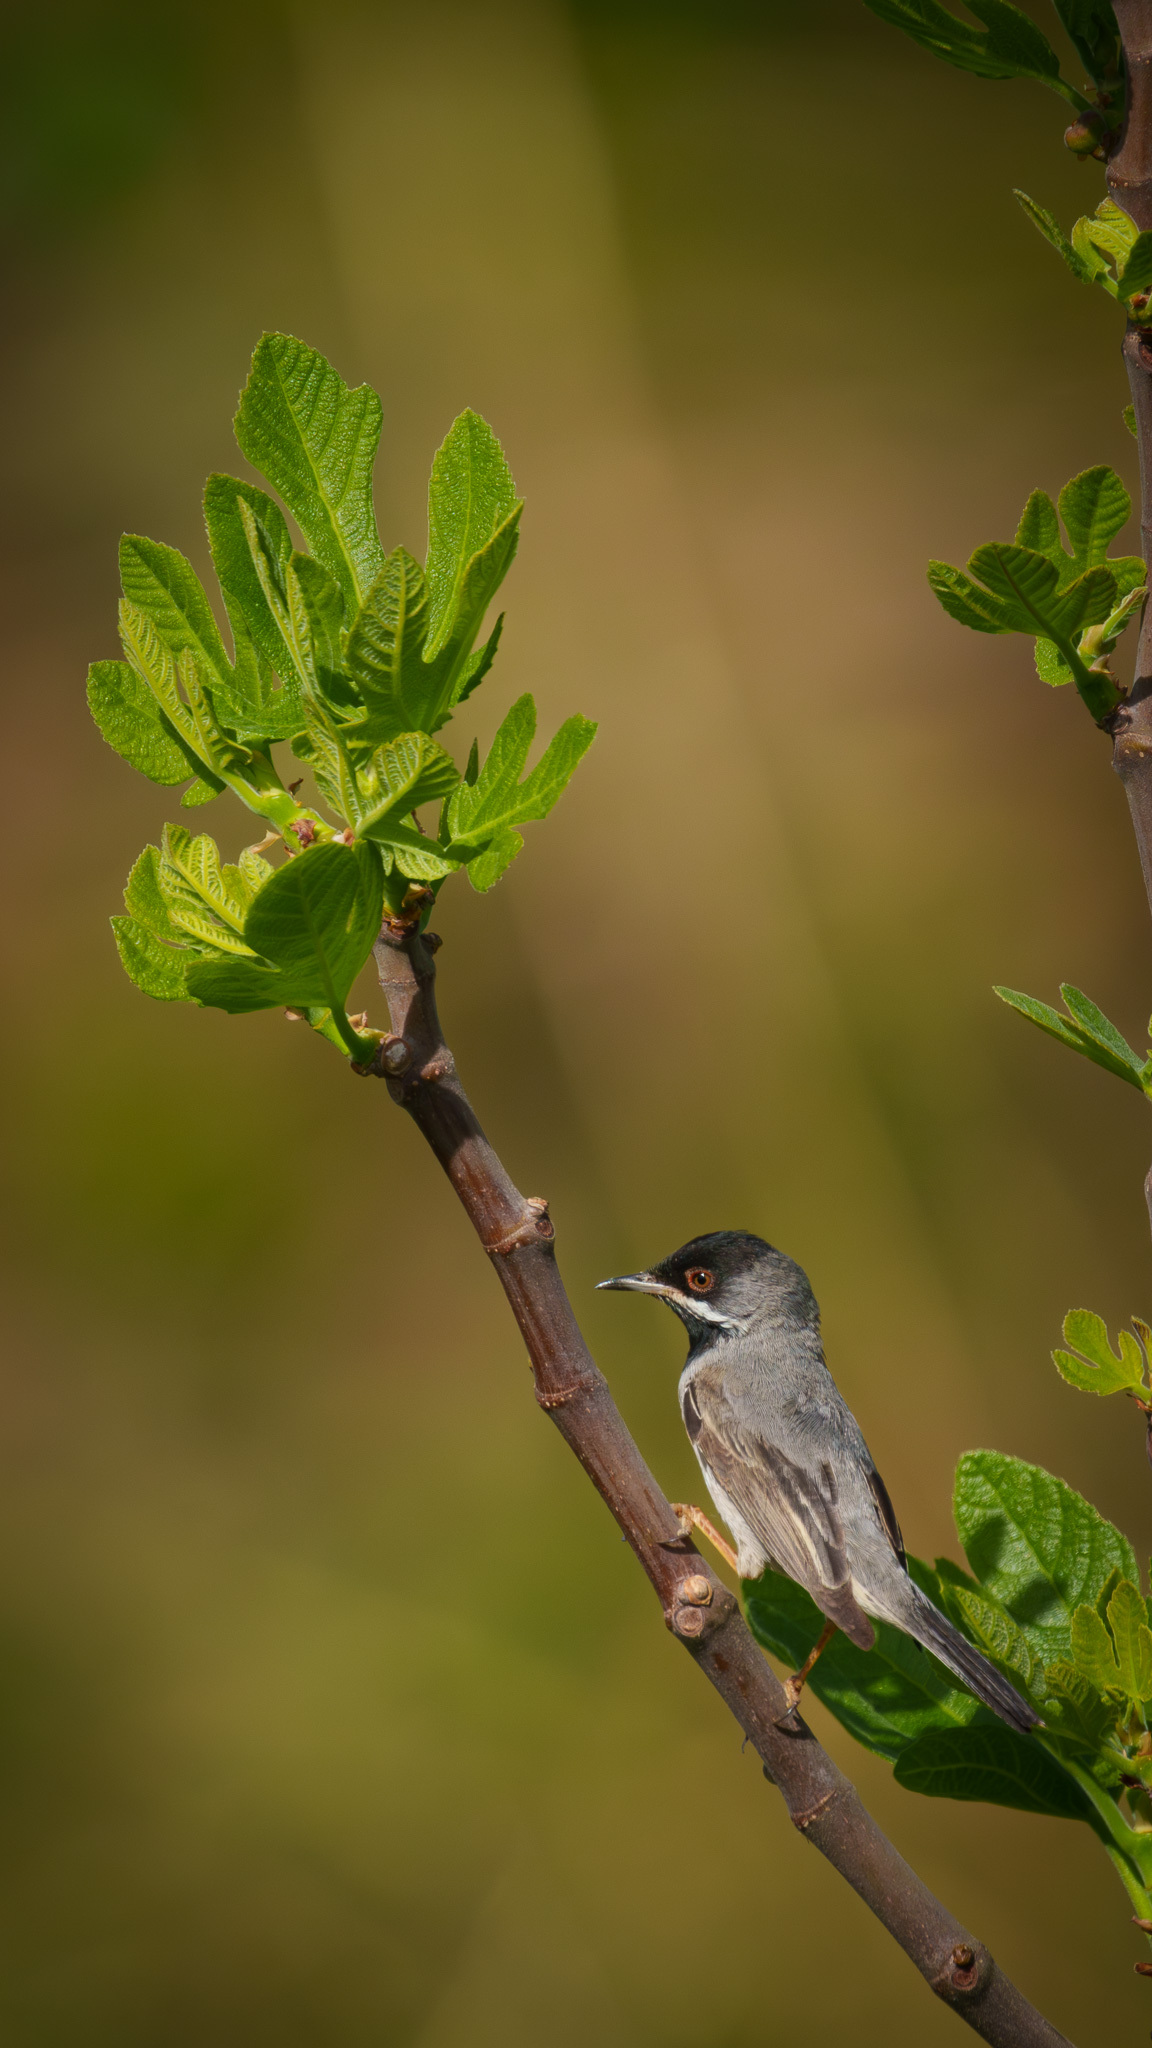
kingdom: Animalia
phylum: Chordata
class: Aves
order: Passeriformes
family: Sylviidae
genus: Sylvia
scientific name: Sylvia ruppeli
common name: Rüppell's warbler
